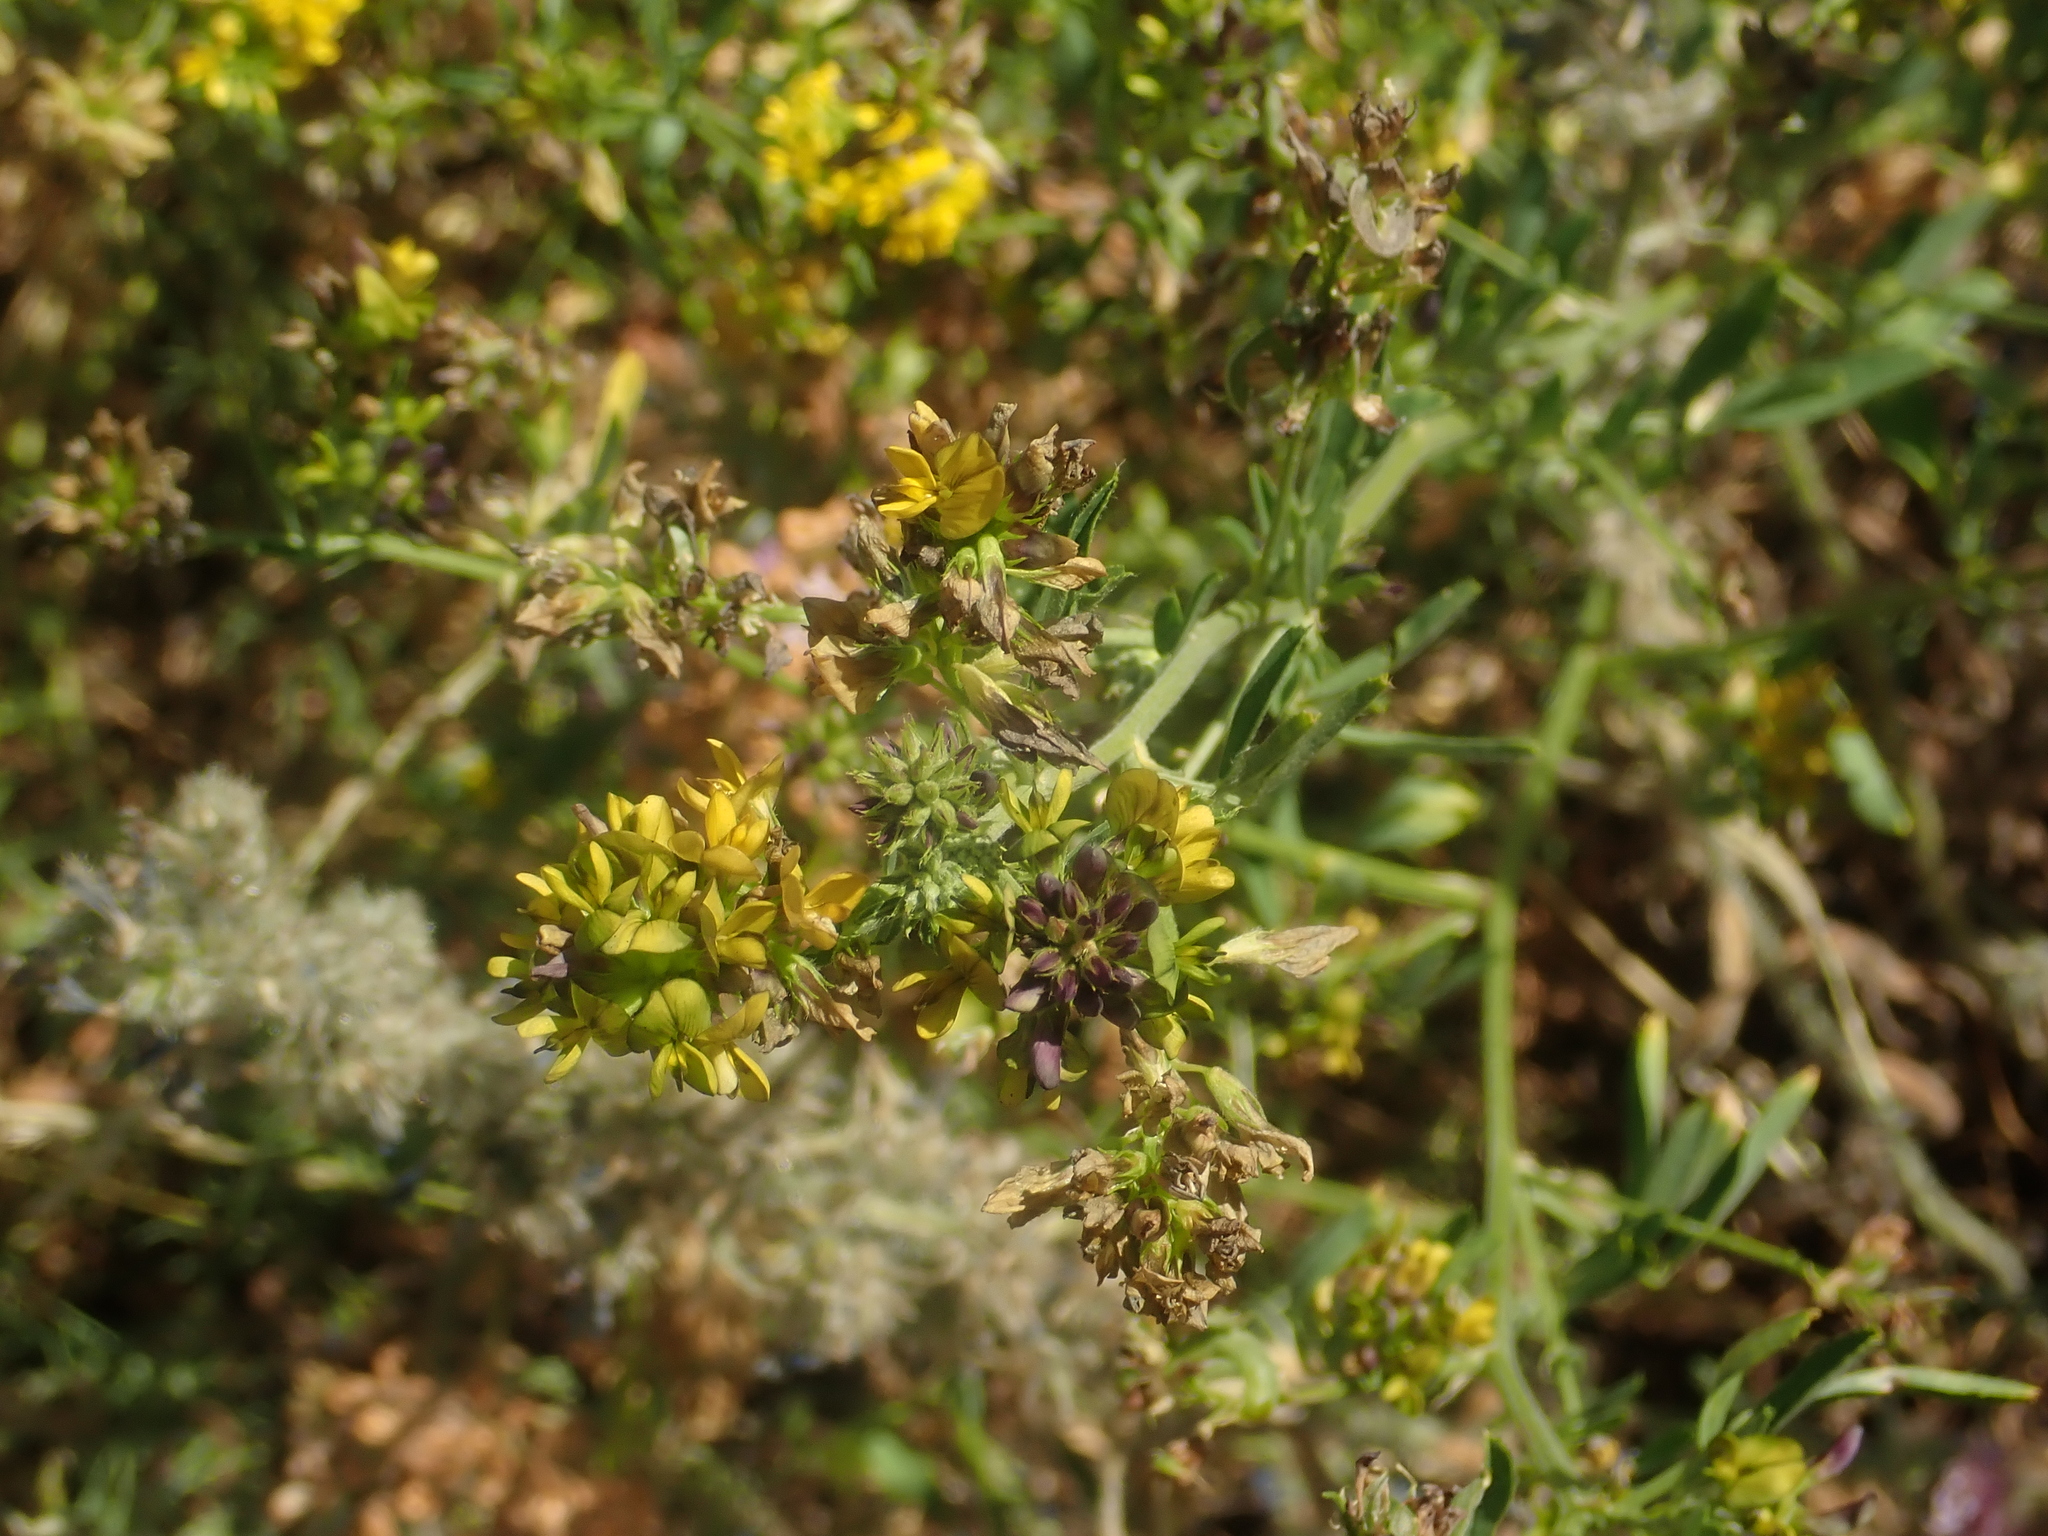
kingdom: Plantae
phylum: Tracheophyta
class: Magnoliopsida
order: Fabales
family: Fabaceae
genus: Medicago
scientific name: Medicago varia
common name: Sand lucerne
